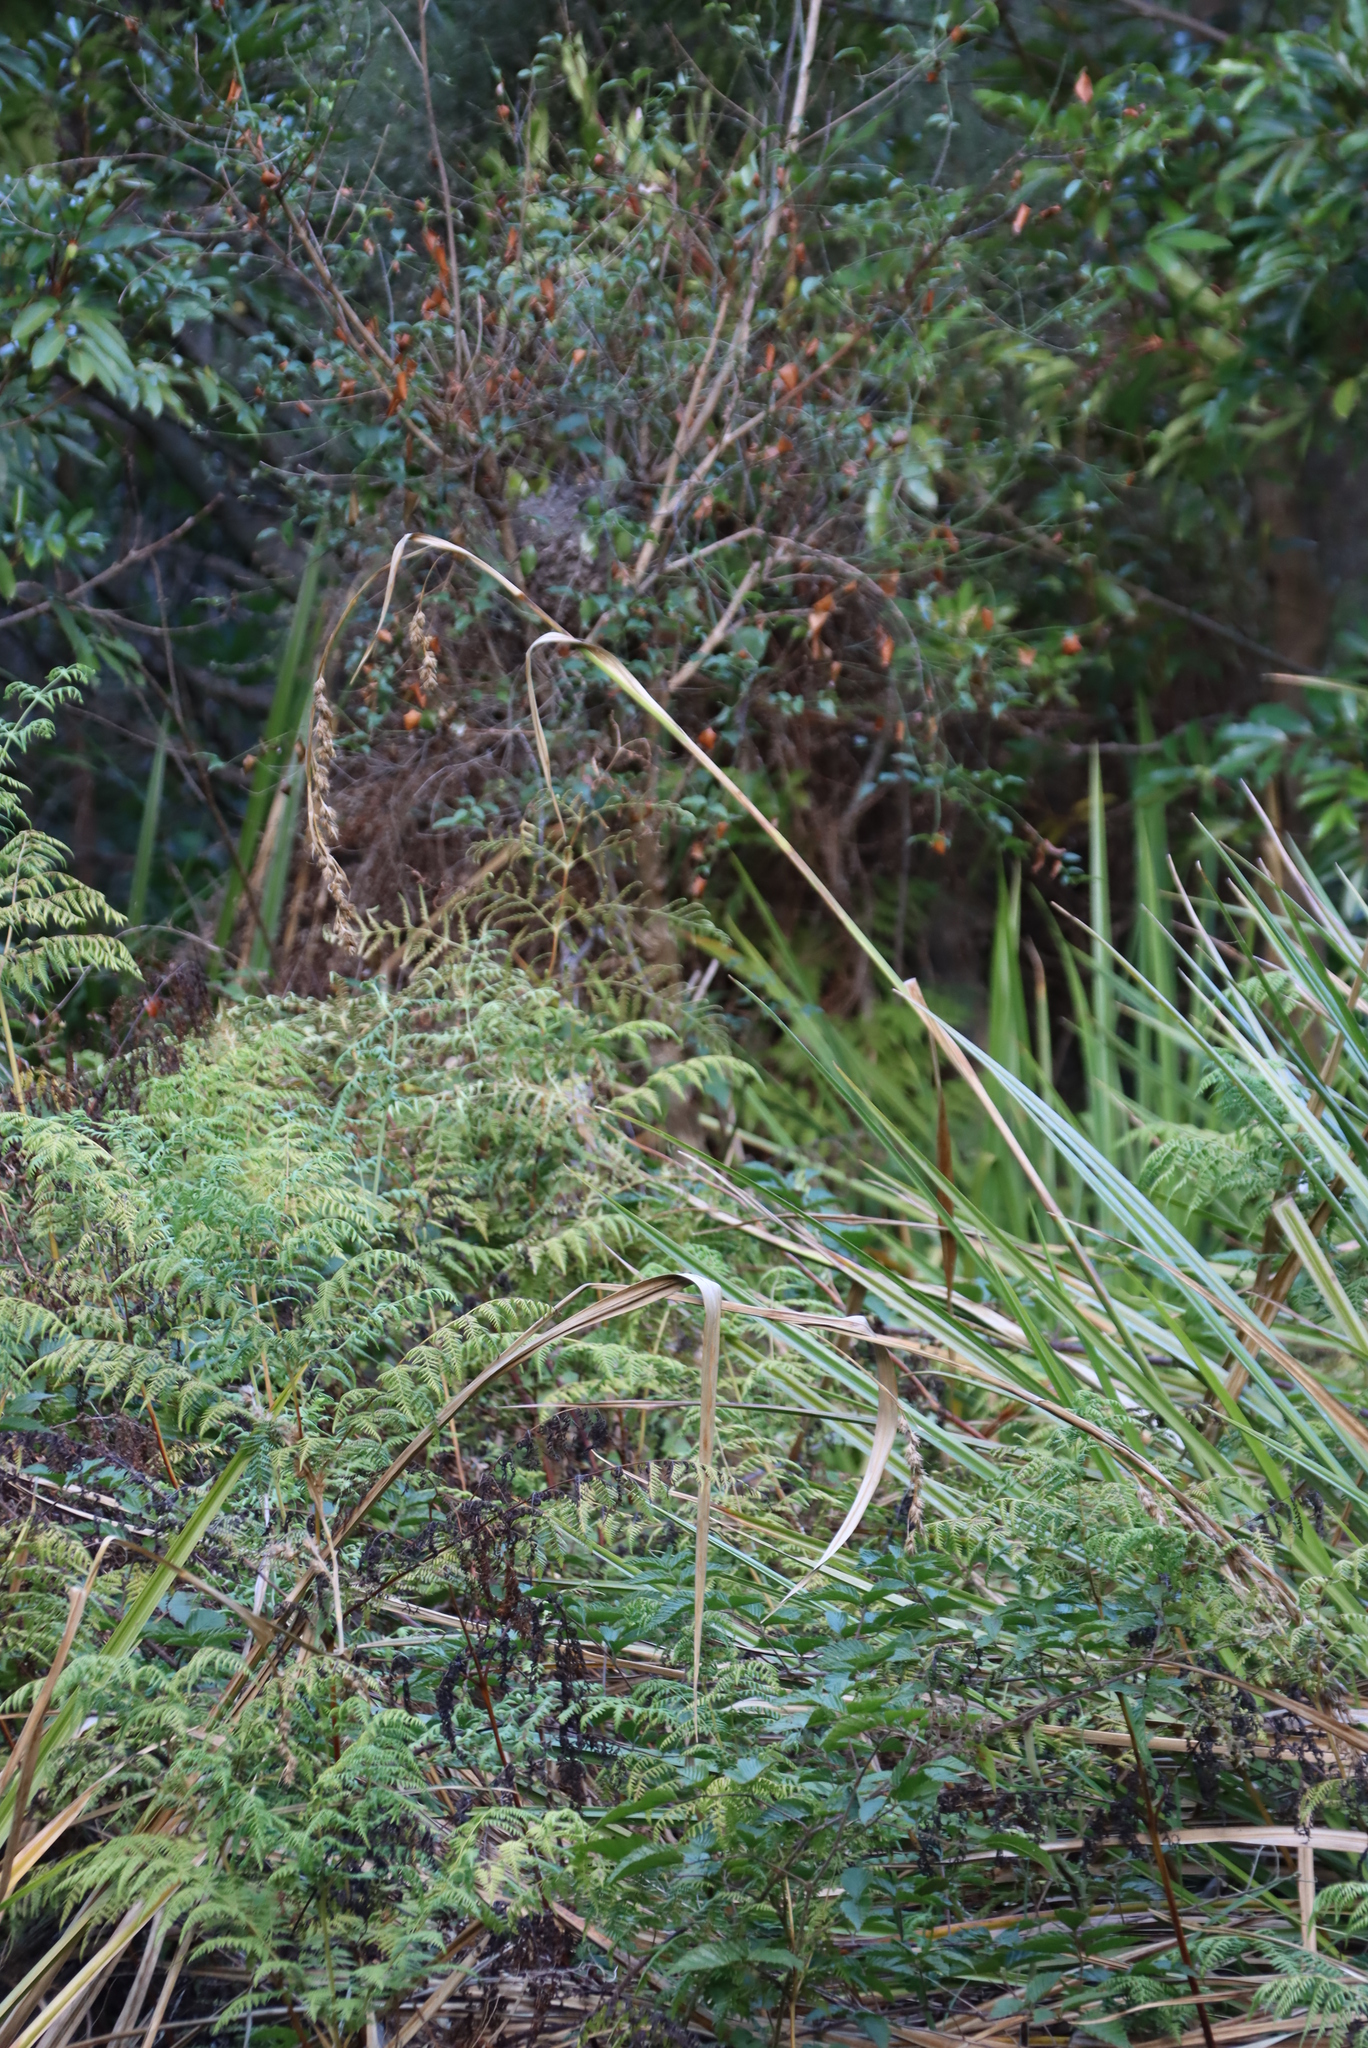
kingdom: Plantae
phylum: Tracheophyta
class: Liliopsida
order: Poales
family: Cyperaceae
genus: Carpha
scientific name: Carpha glomerata
